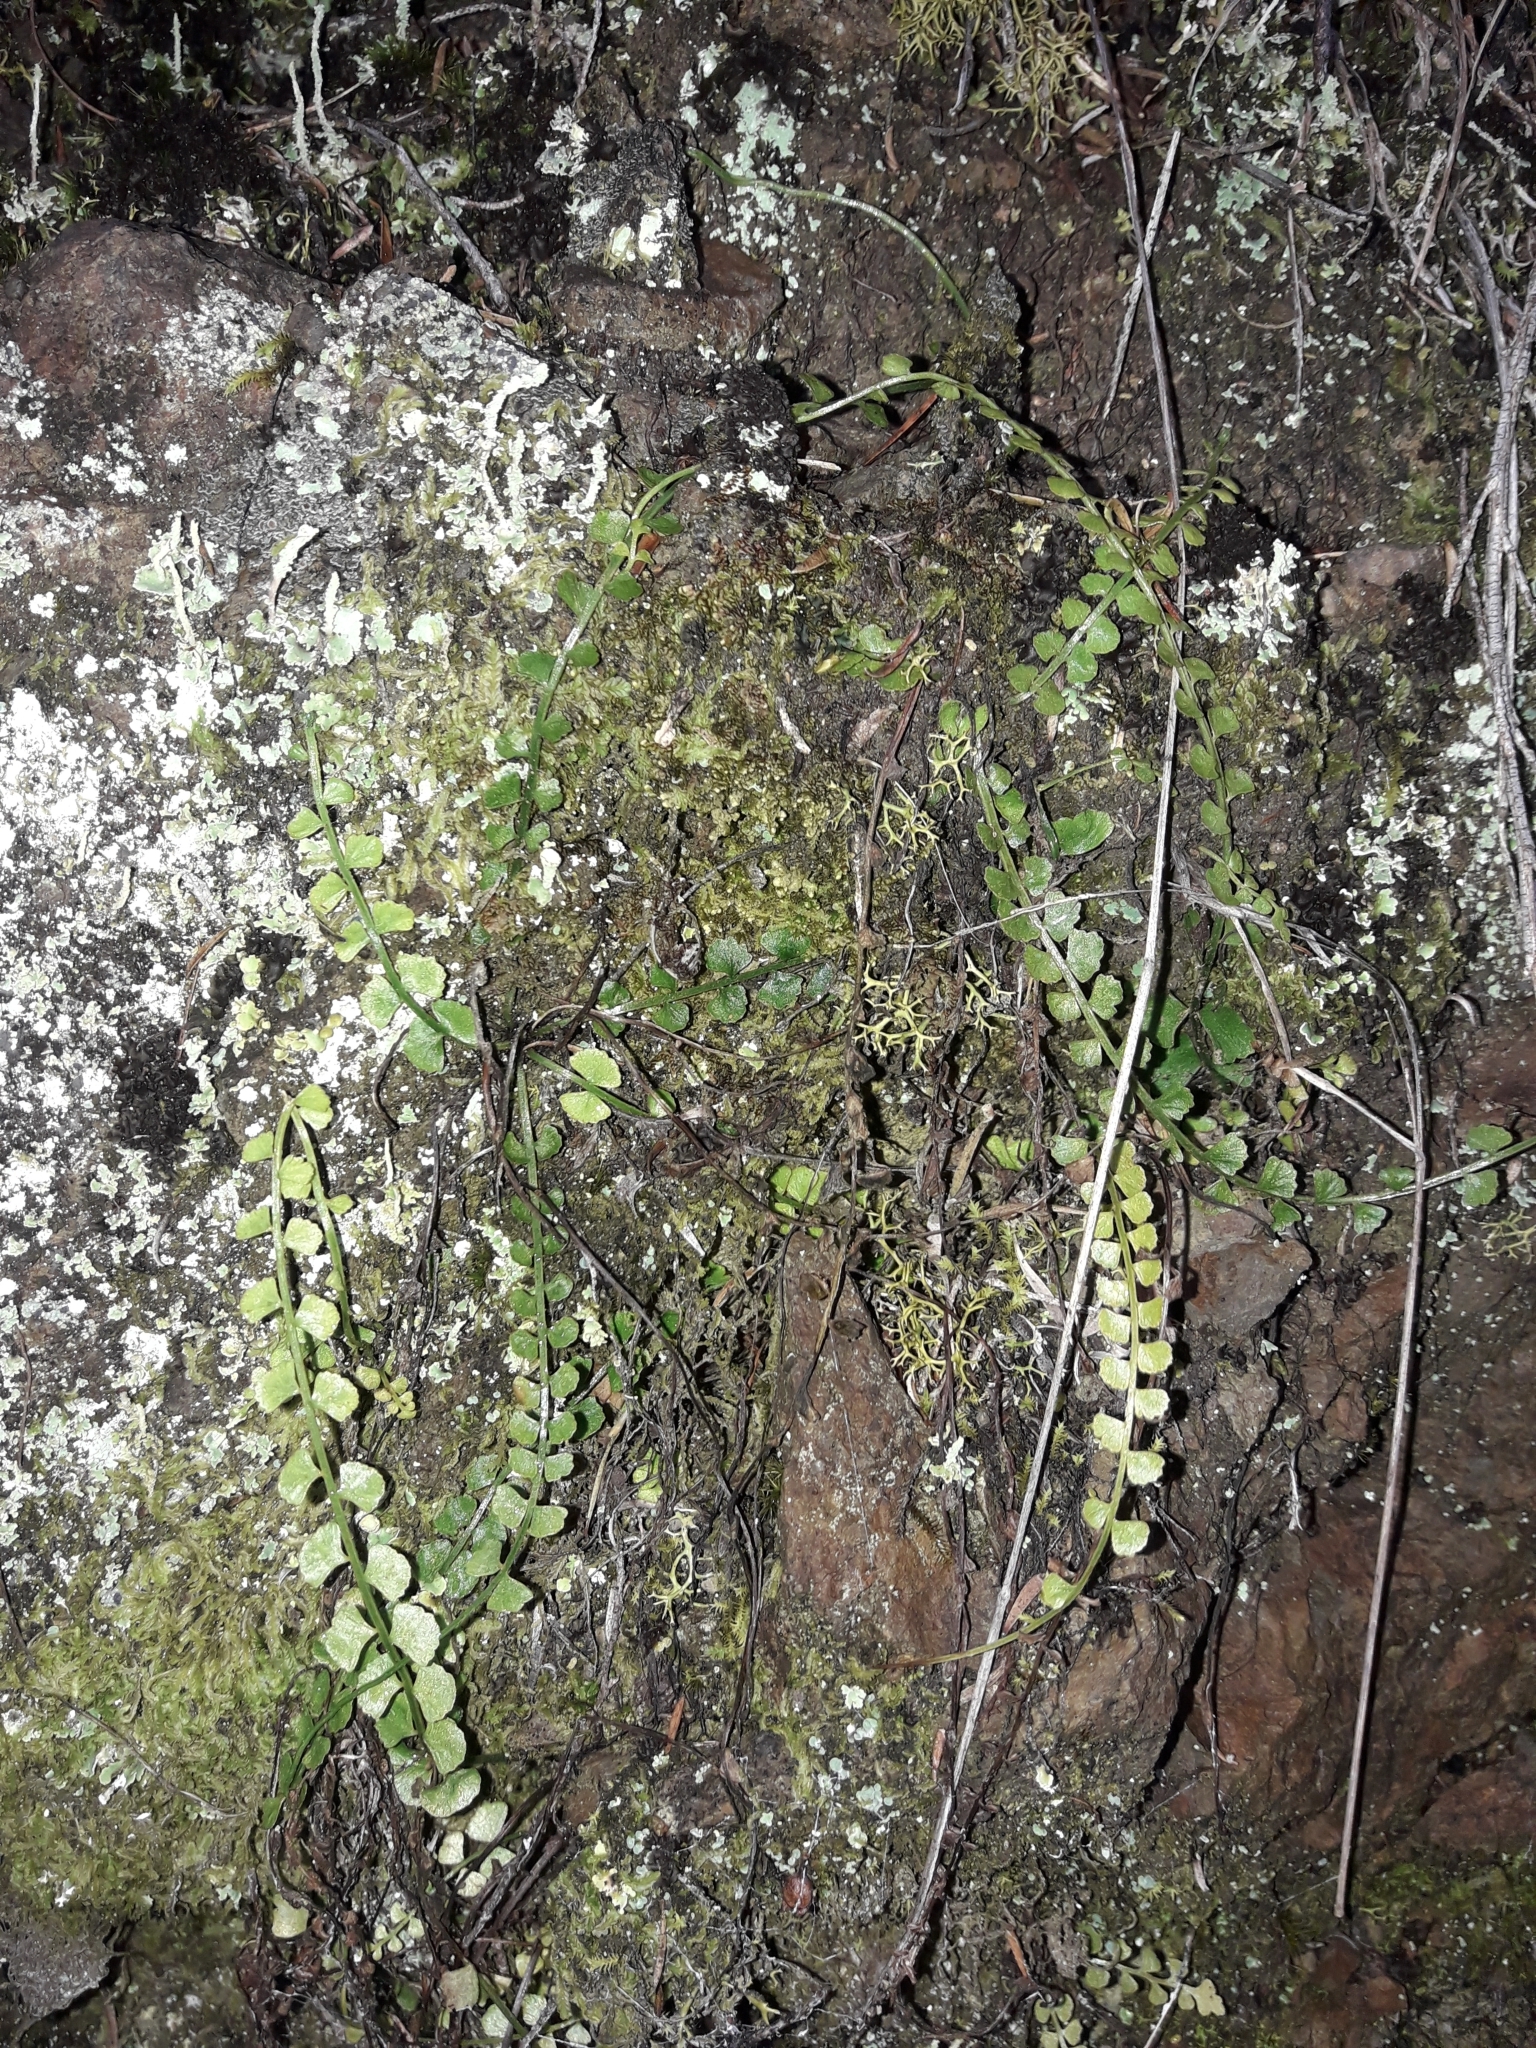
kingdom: Plantae
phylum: Tracheophyta
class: Polypodiopsida
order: Polypodiales
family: Aspleniaceae
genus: Asplenium
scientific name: Asplenium flabellifolium
